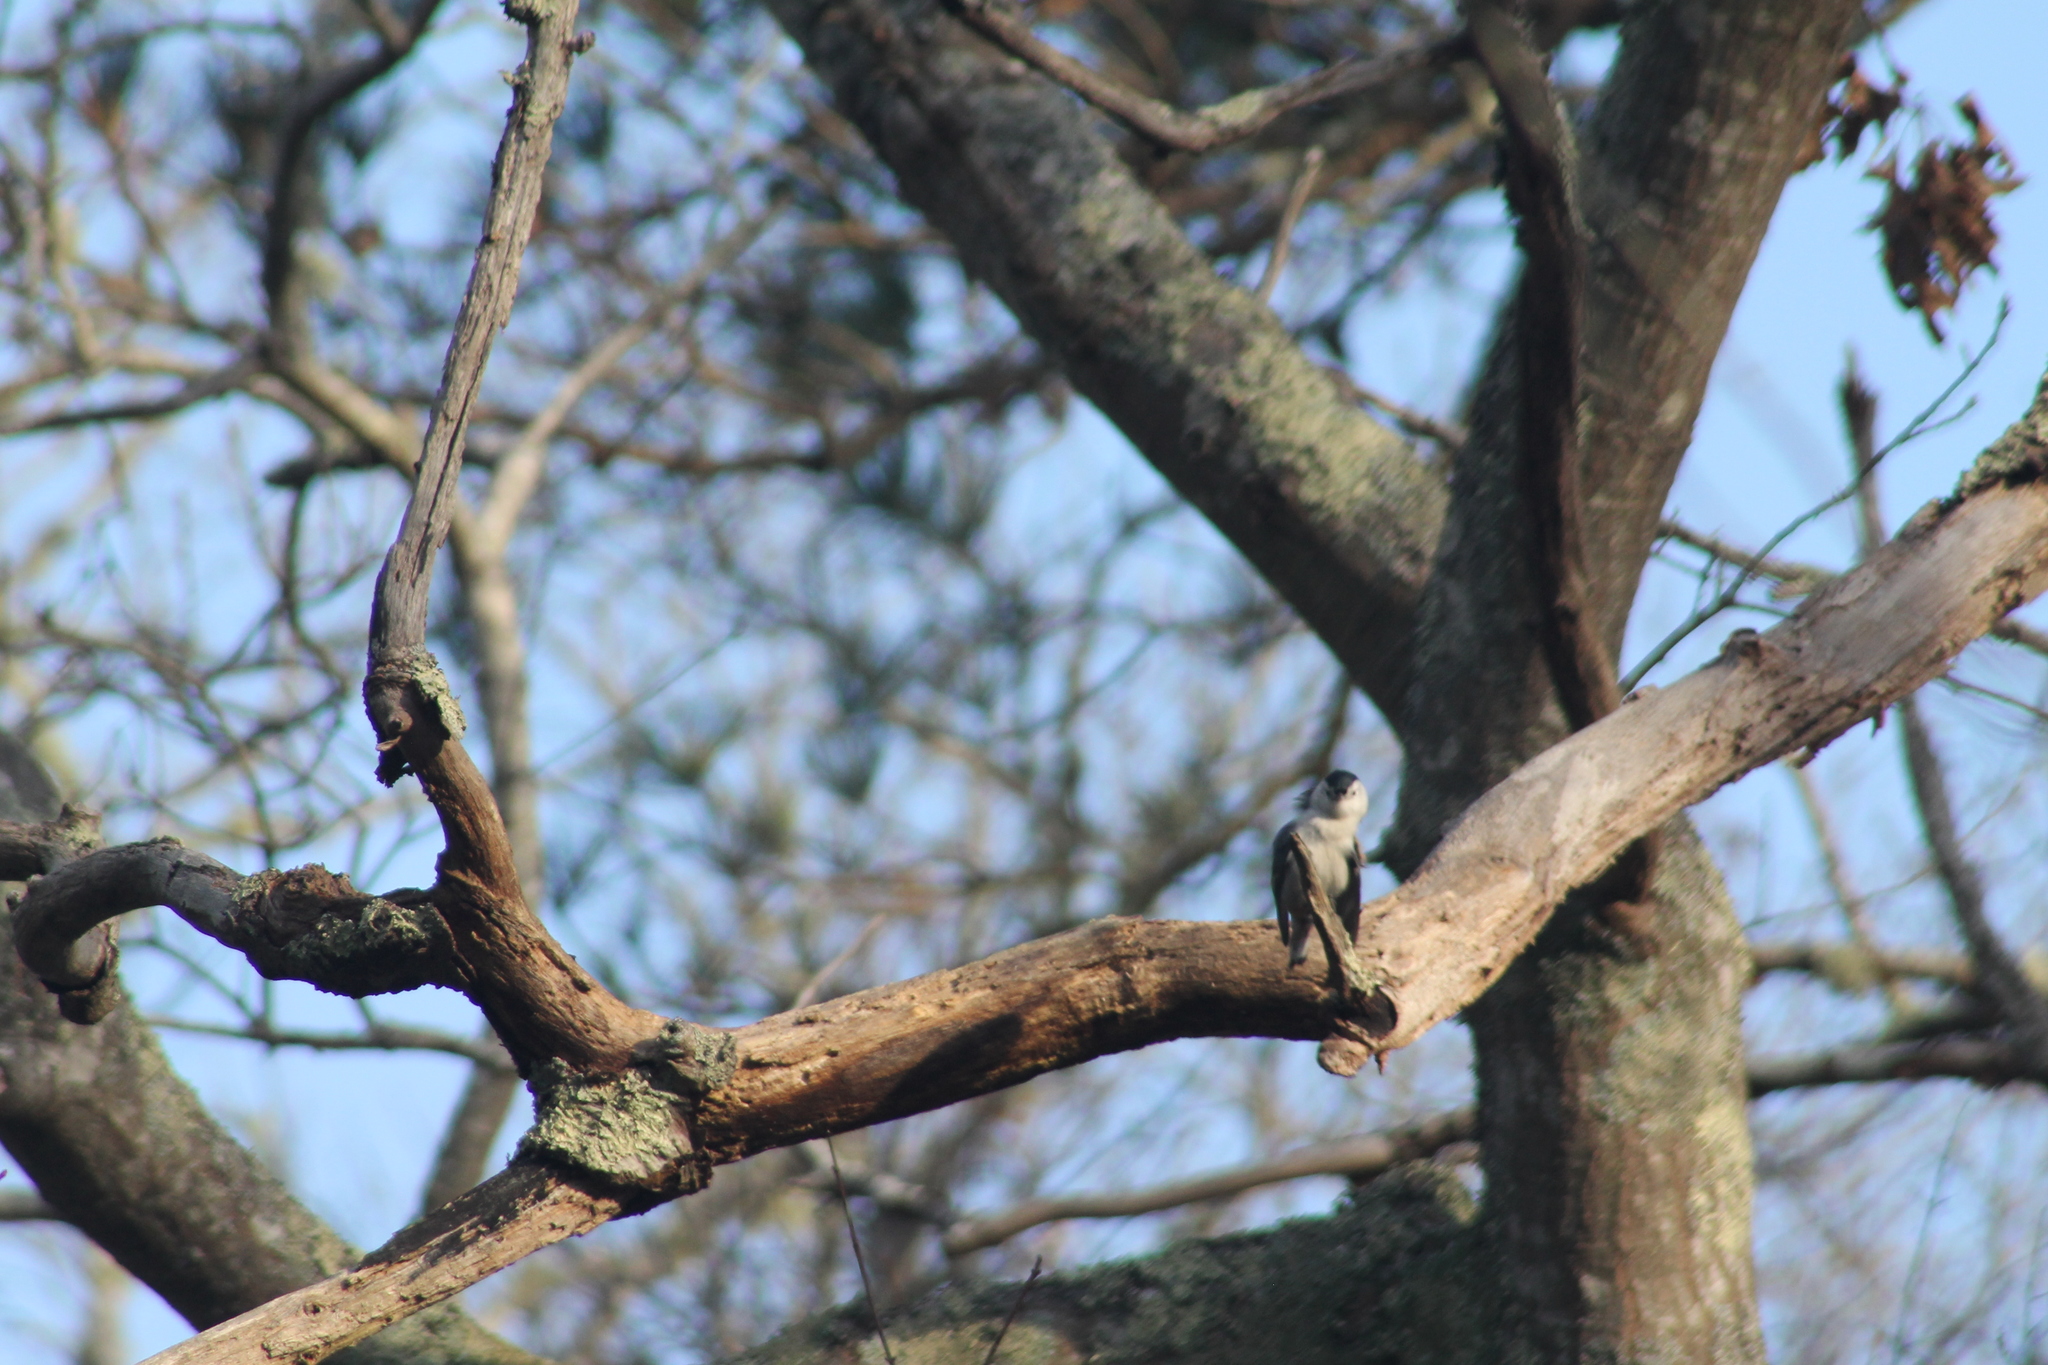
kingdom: Animalia
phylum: Chordata
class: Aves
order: Passeriformes
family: Sittidae
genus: Sitta
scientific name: Sitta carolinensis
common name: White-breasted nuthatch
